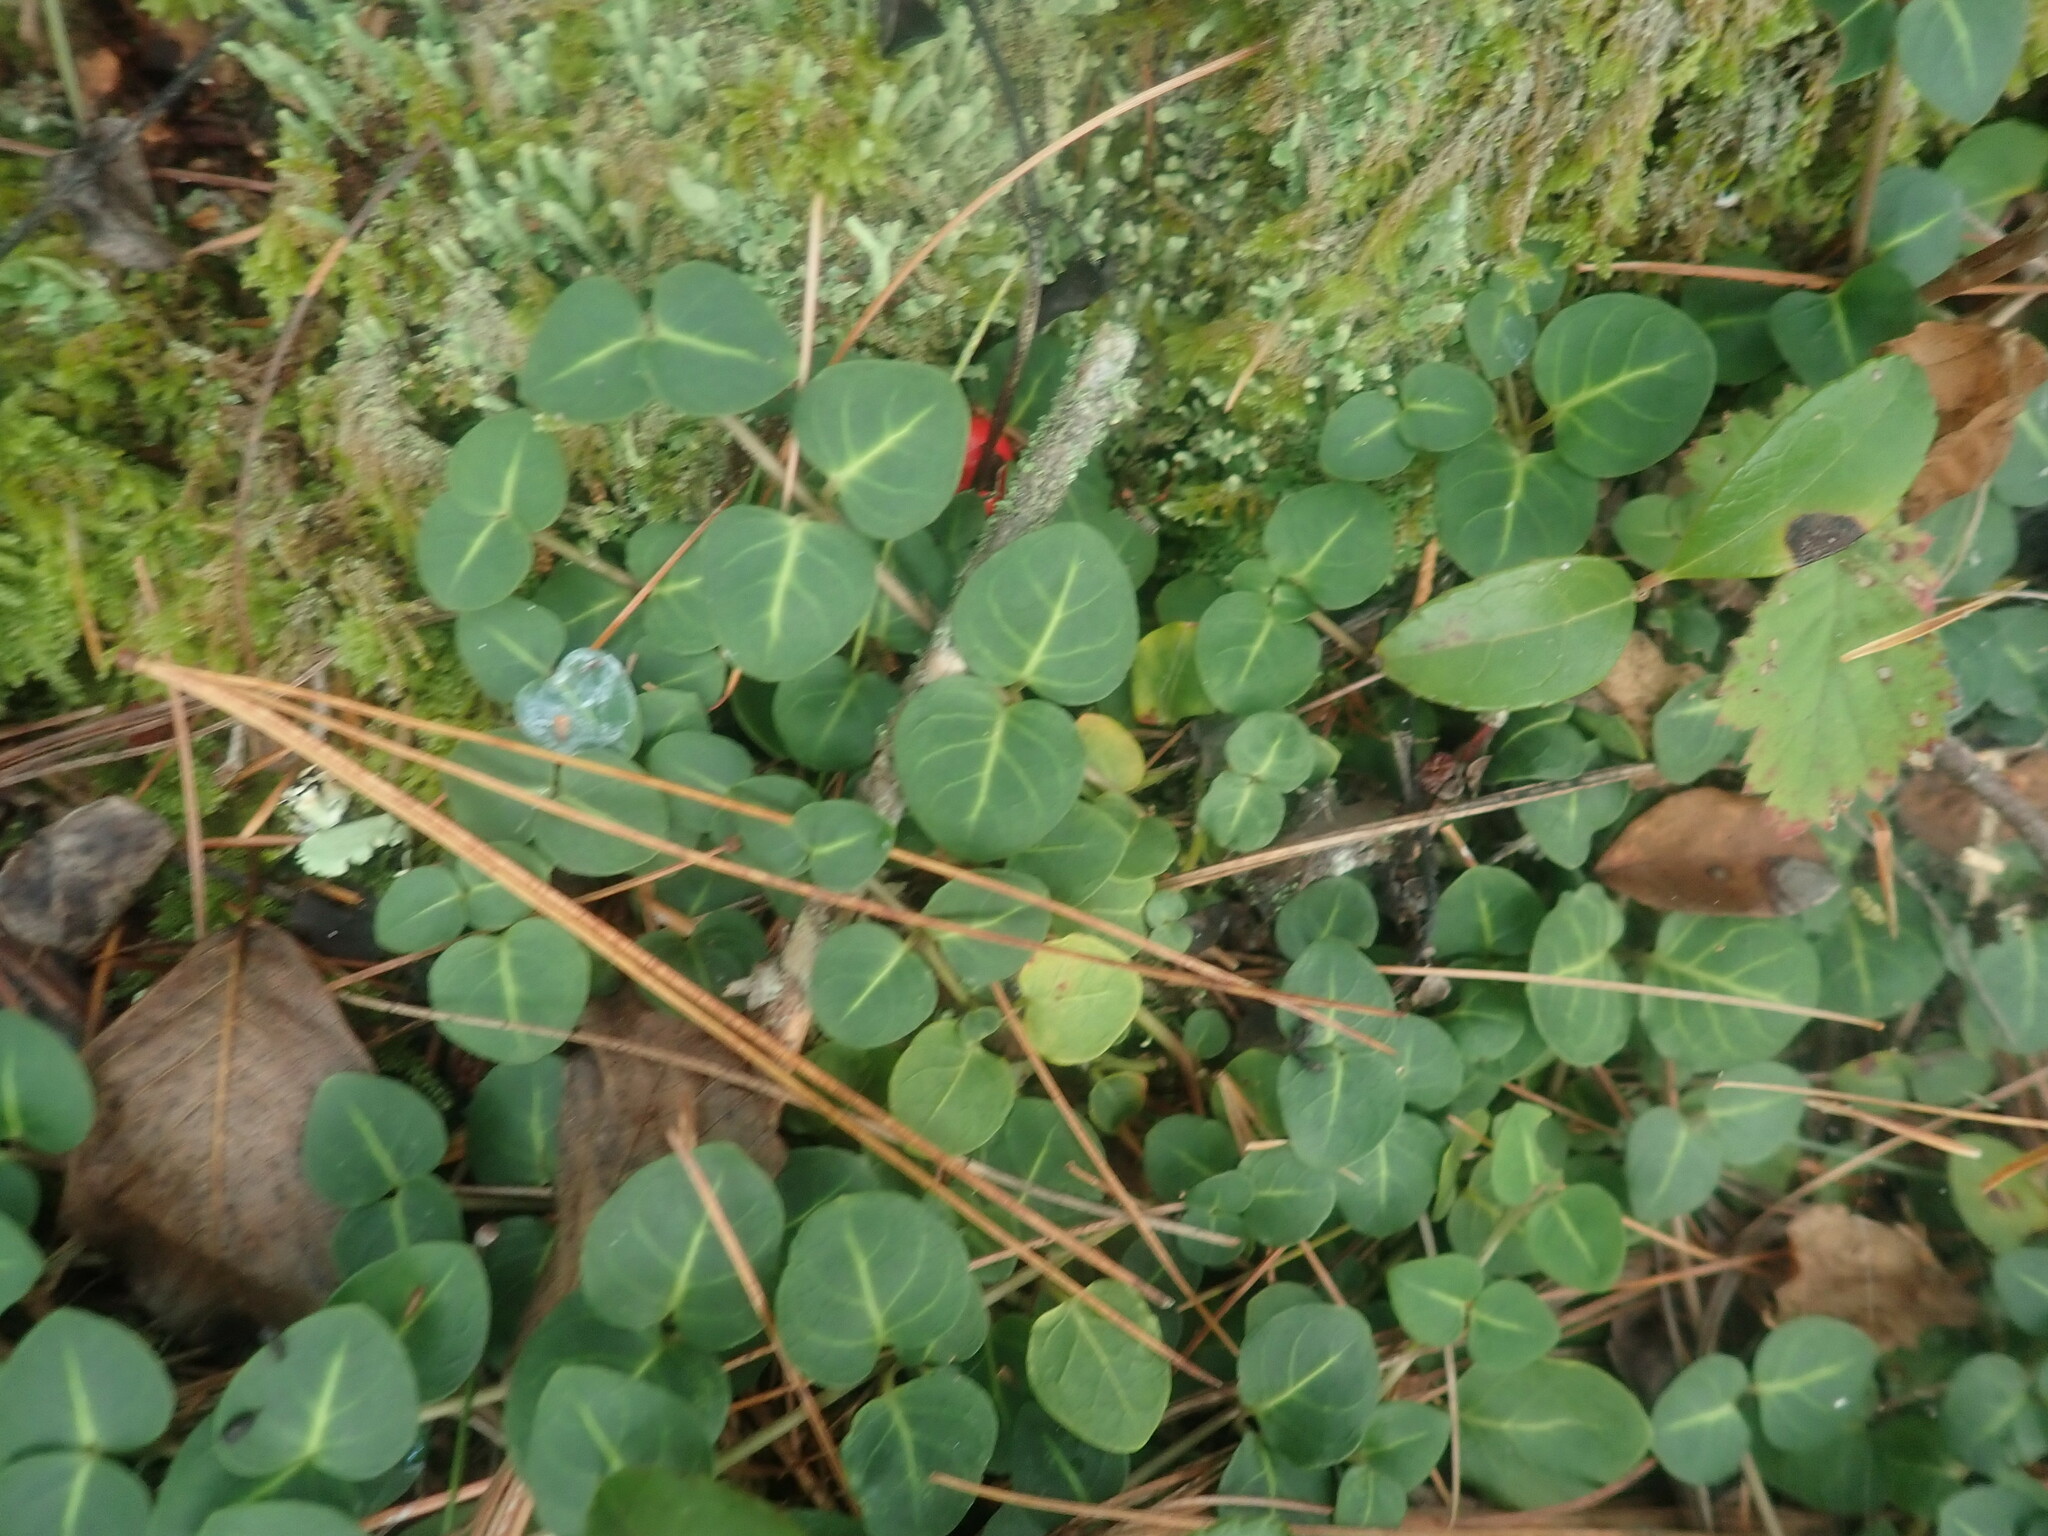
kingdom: Plantae
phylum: Tracheophyta
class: Magnoliopsida
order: Gentianales
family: Rubiaceae
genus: Mitchella
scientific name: Mitchella repens
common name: Partridge-berry
